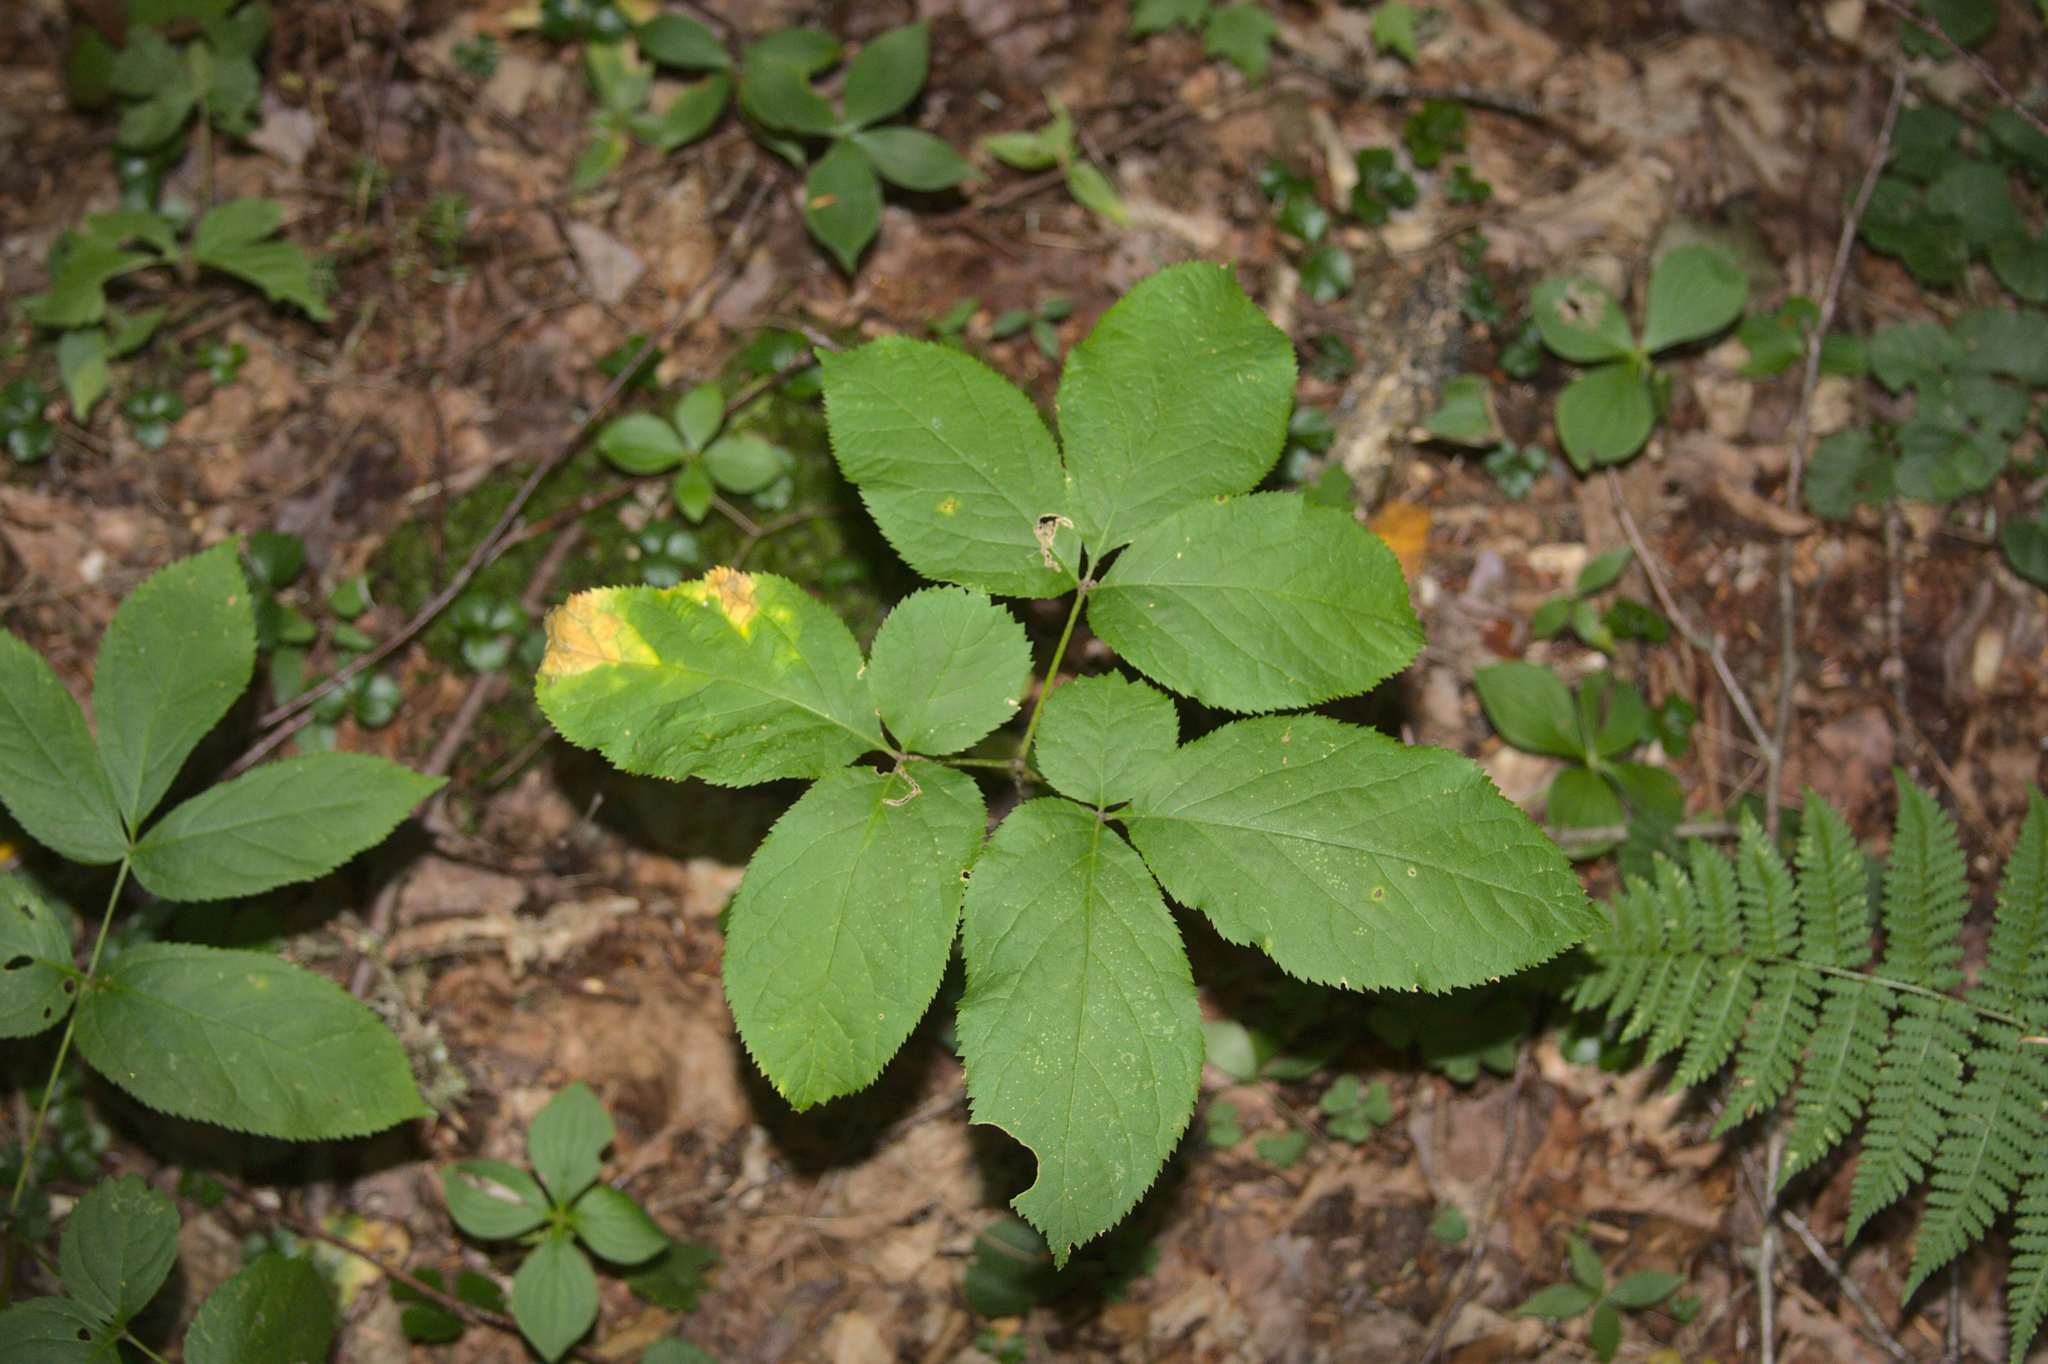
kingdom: Plantae
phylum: Tracheophyta
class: Magnoliopsida
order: Apiales
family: Araliaceae
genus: Aralia
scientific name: Aralia nudicaulis
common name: Wild sarsaparilla
